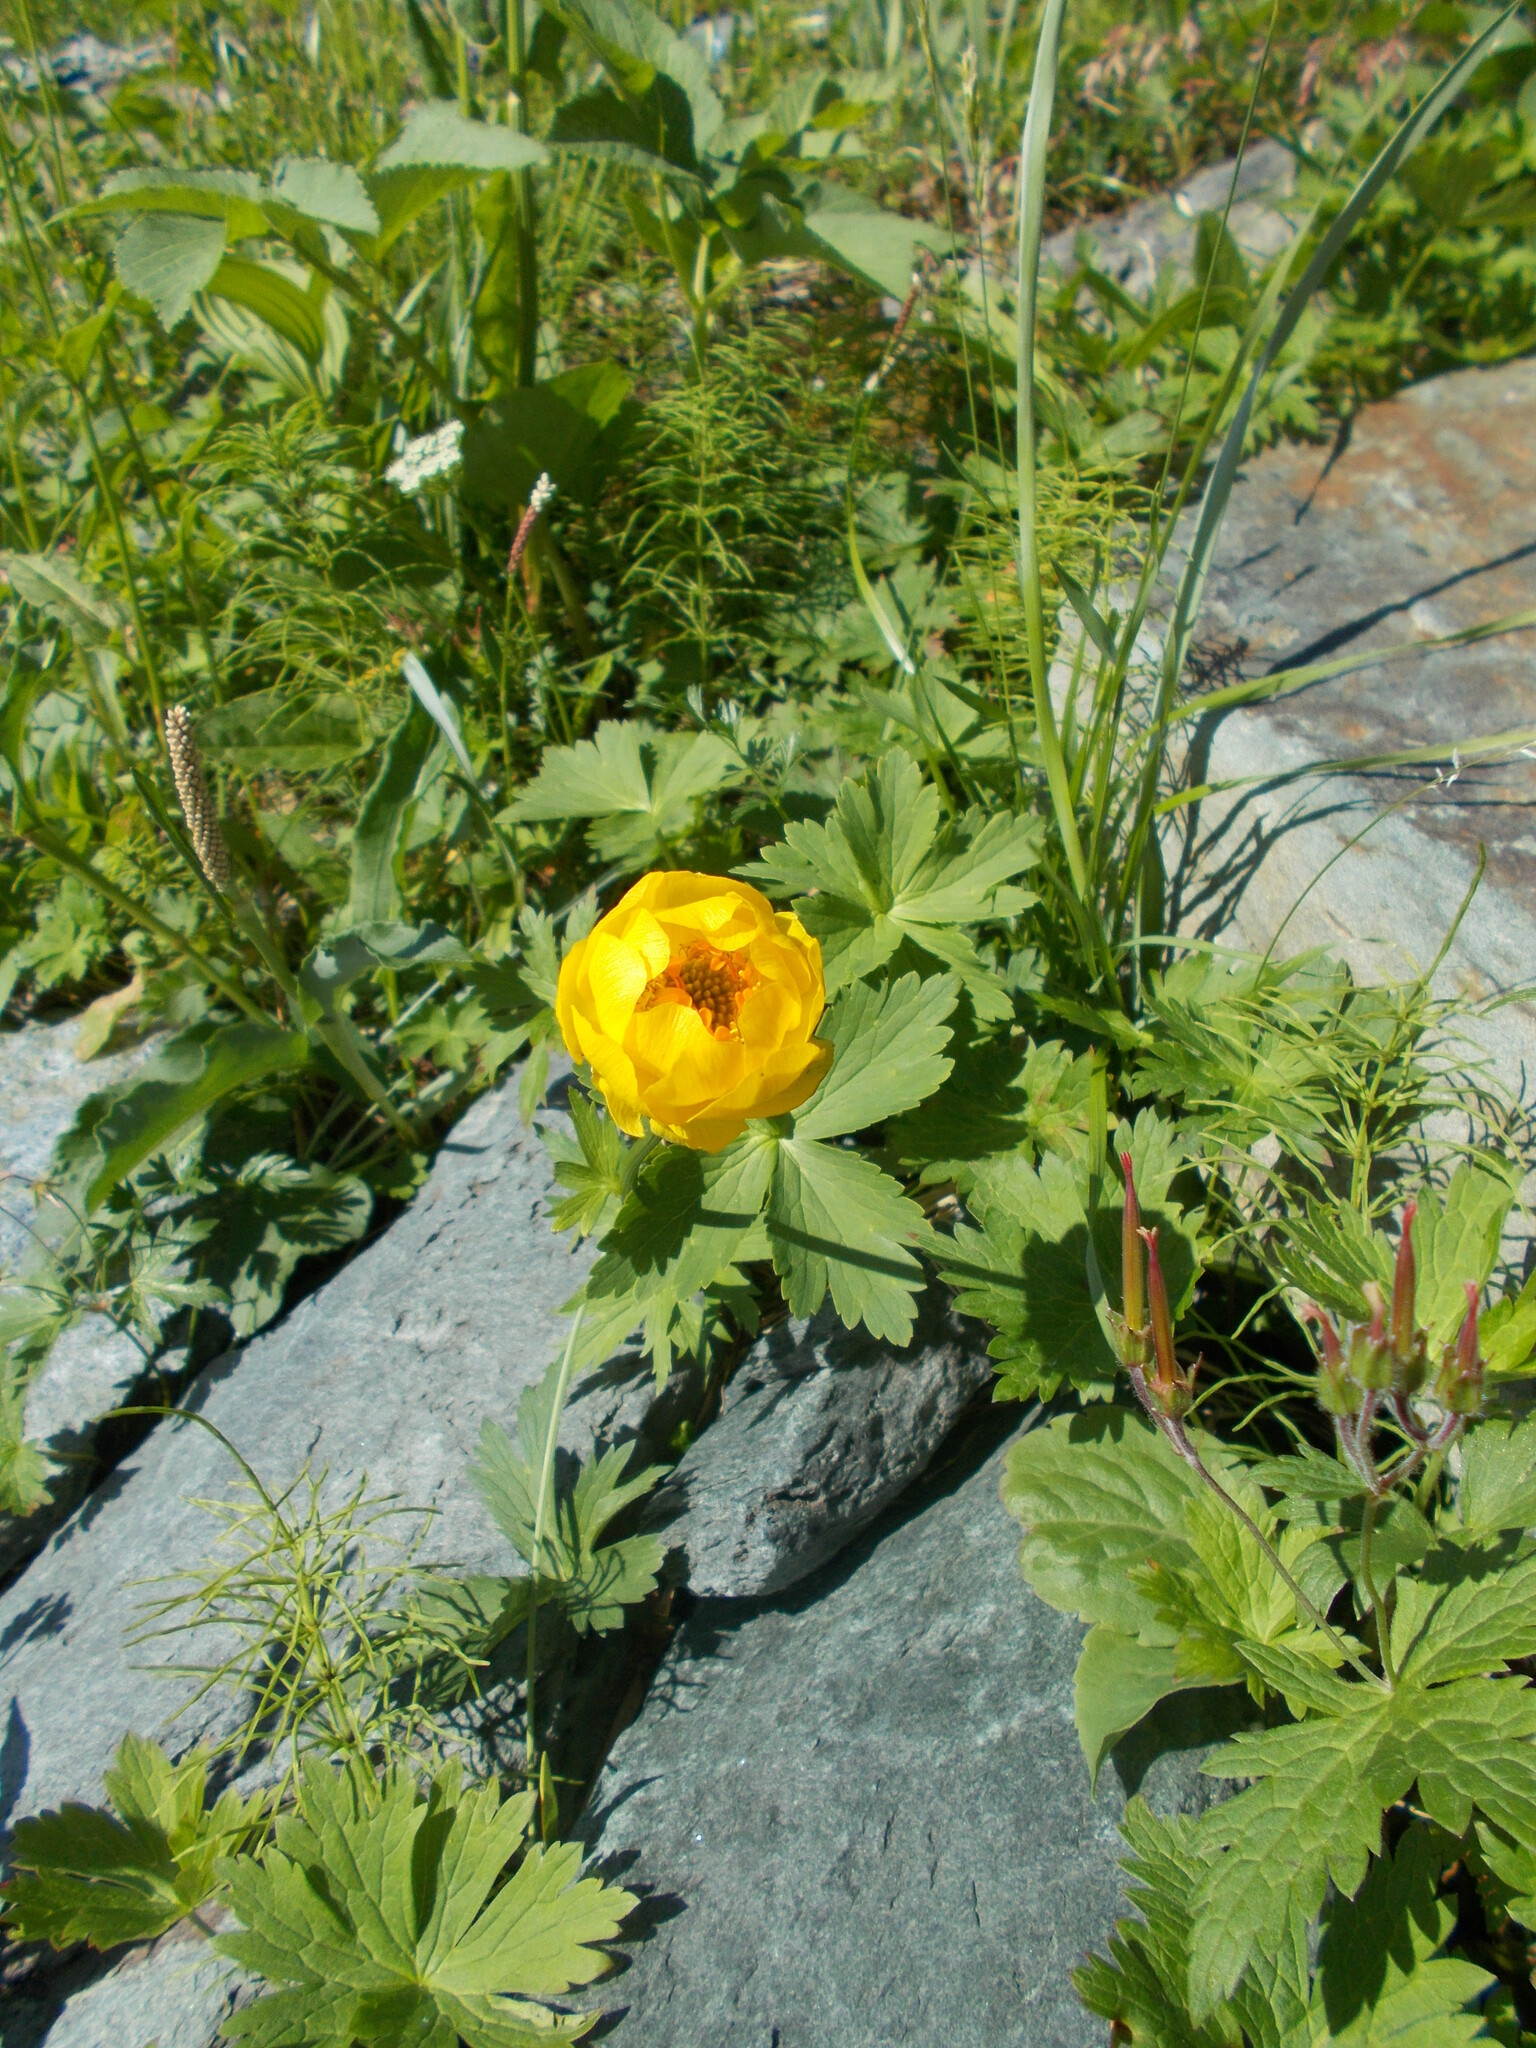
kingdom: Plantae
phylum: Tracheophyta
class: Magnoliopsida
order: Ranunculales
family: Ranunculaceae
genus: Trollius
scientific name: Trollius europaeus
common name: European globeflower
